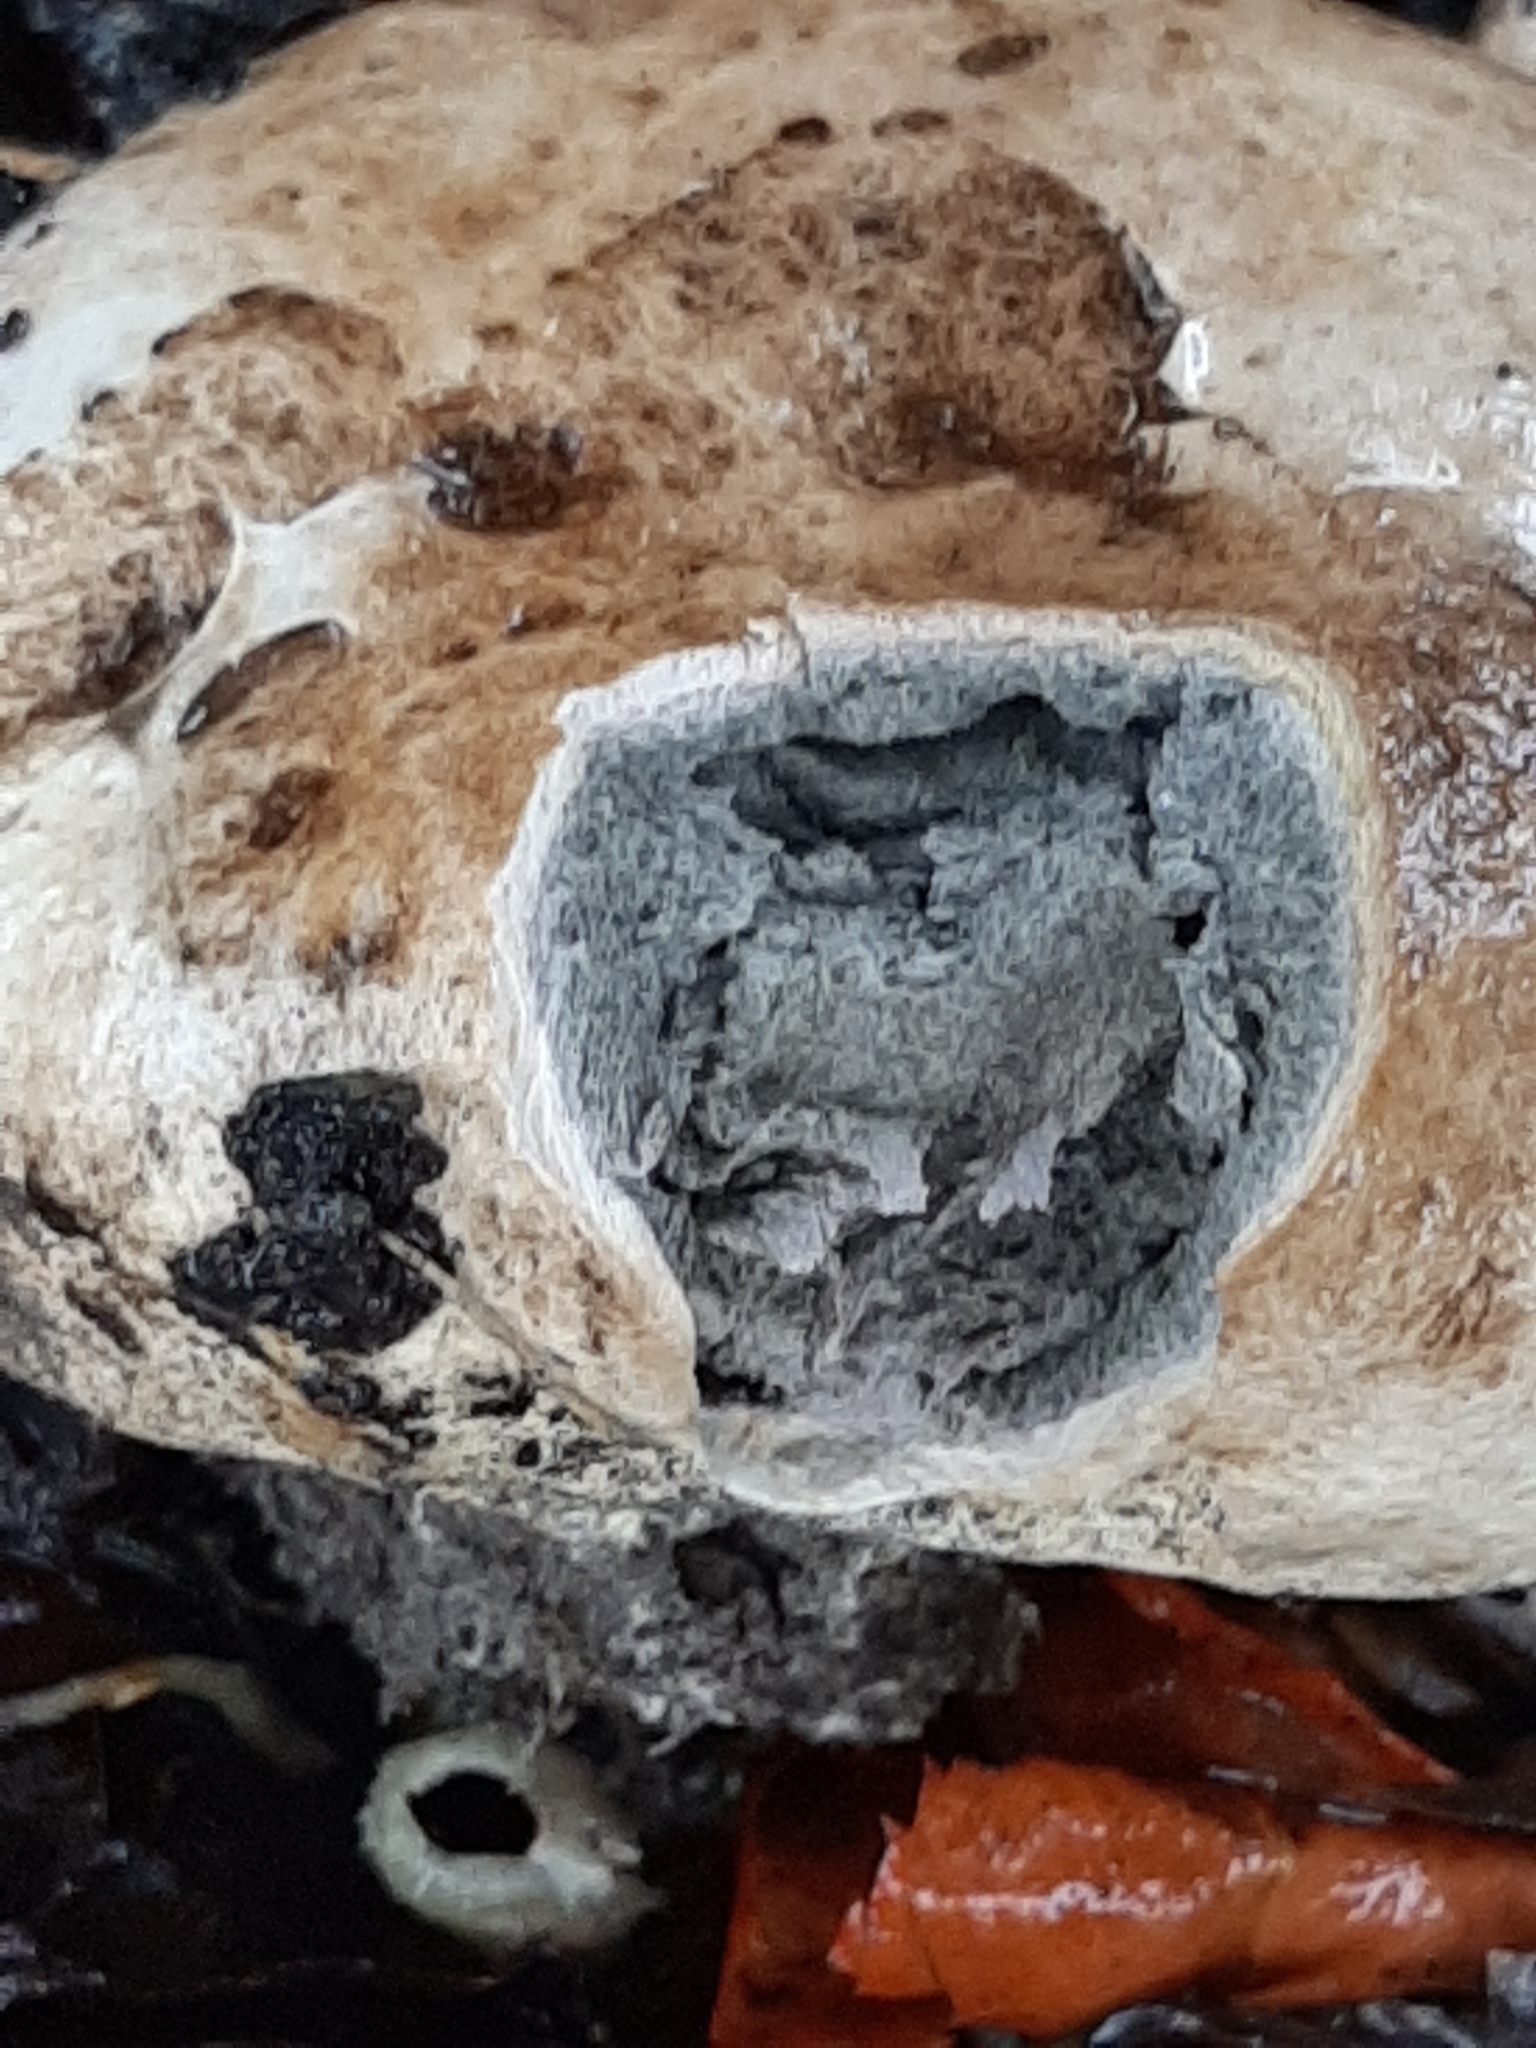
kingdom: Fungi
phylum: Basidiomycota
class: Agaricomycetes
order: Boletales
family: Sclerodermataceae
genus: Scleroderma
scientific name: Scleroderma bovista
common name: Potato earthball
